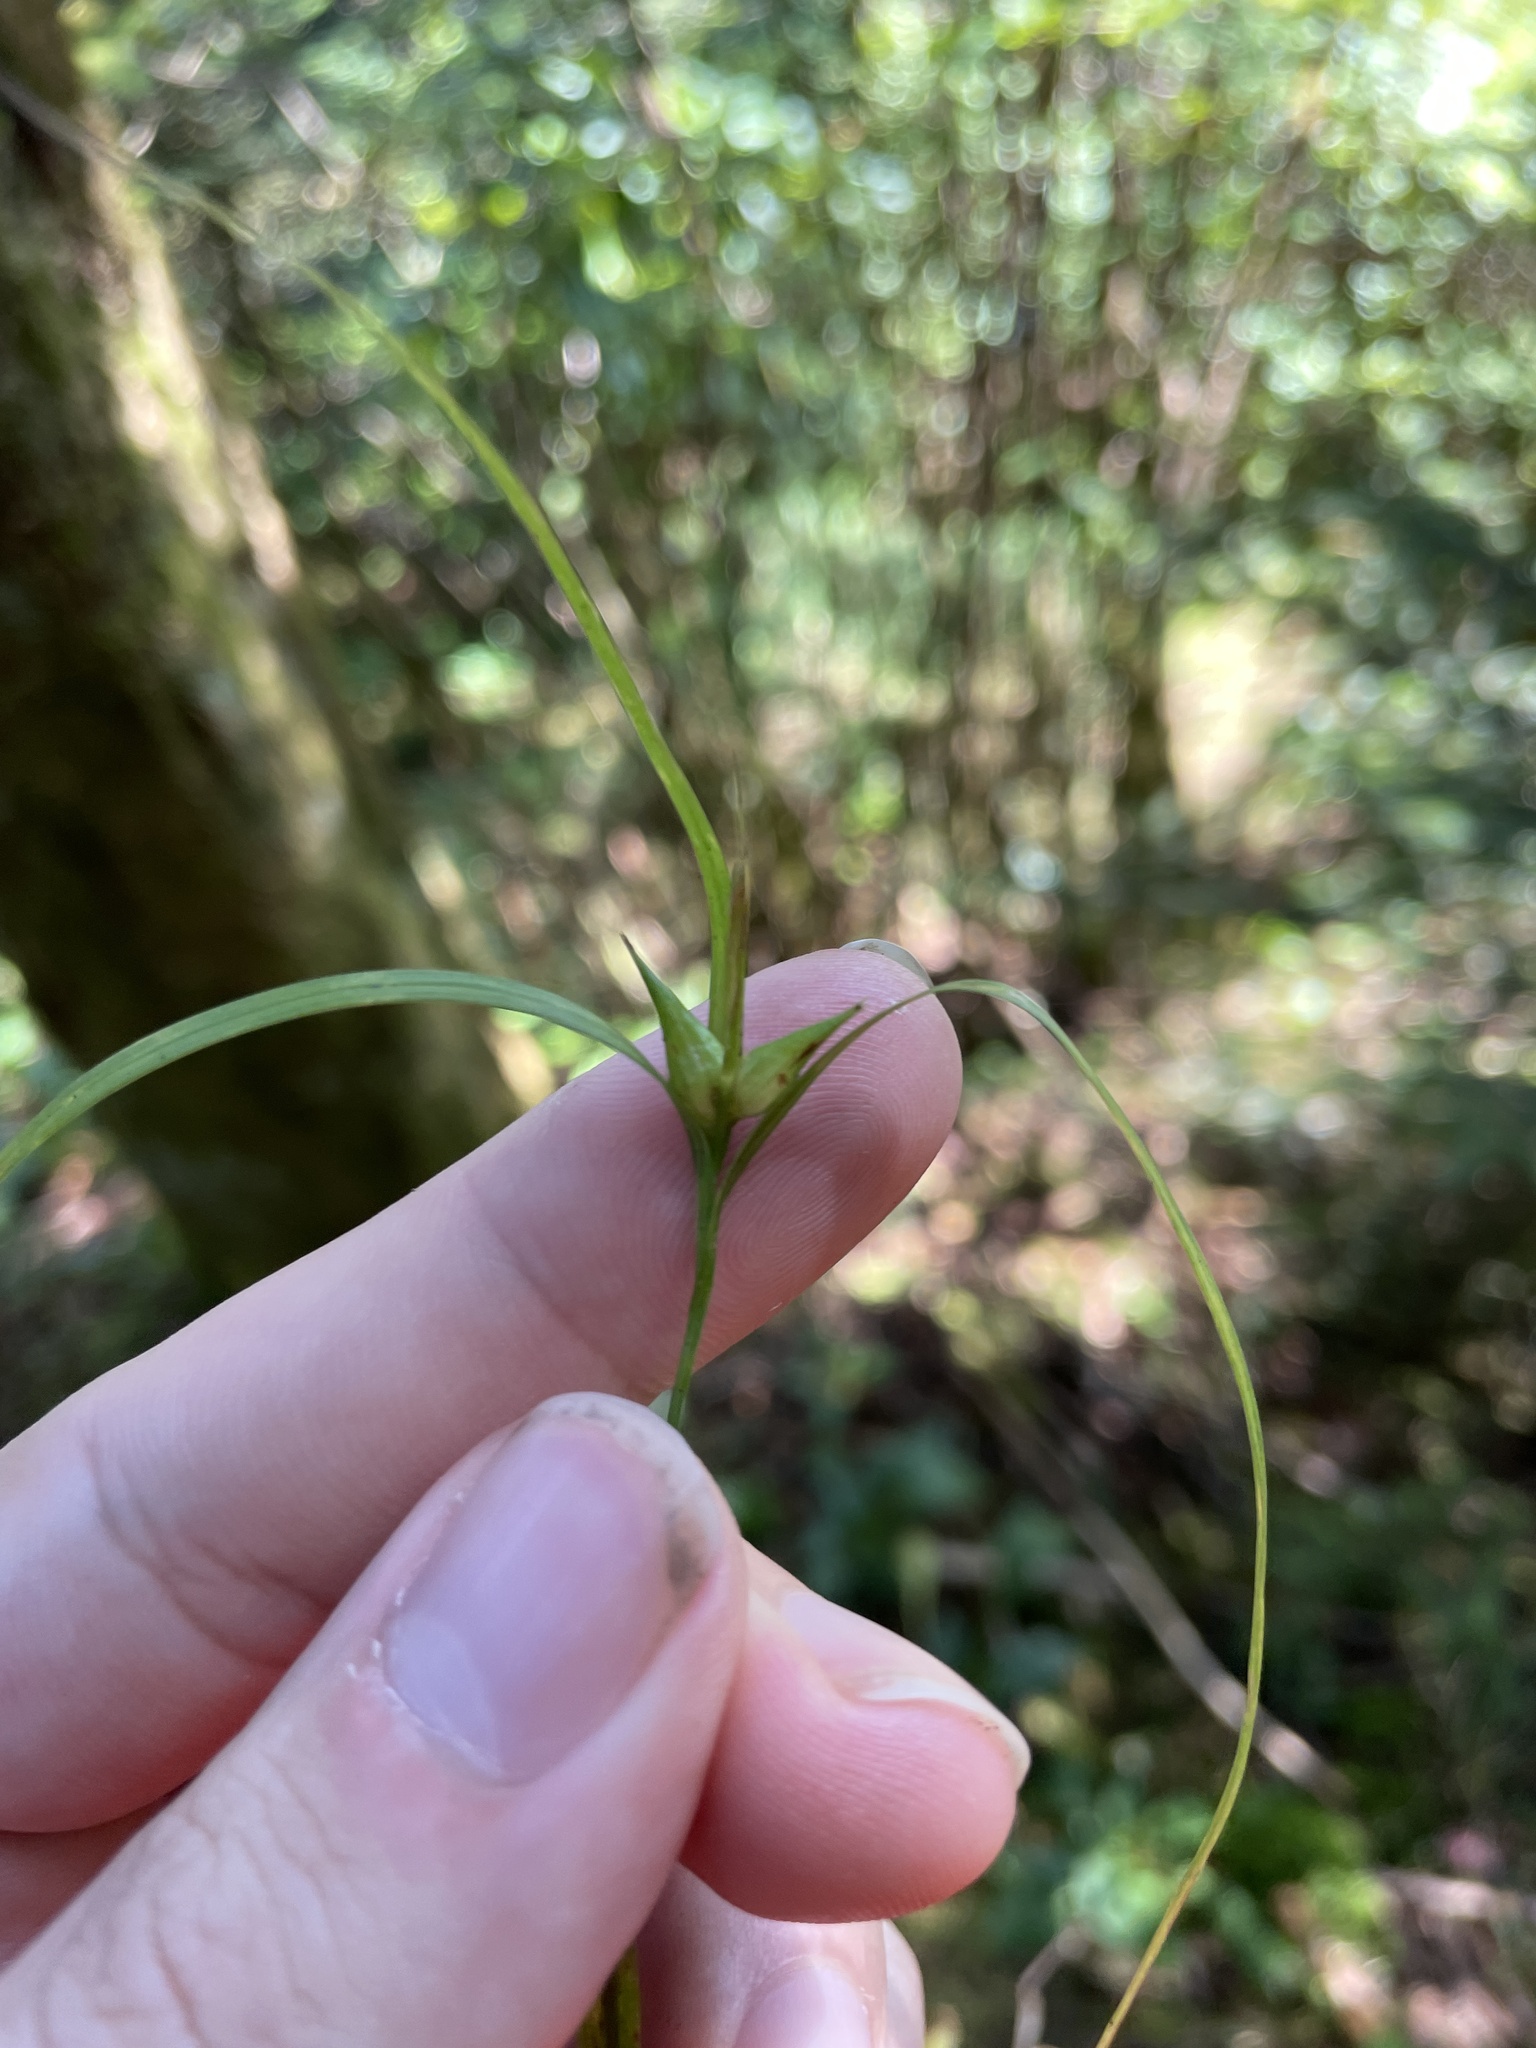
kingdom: Plantae
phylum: Tracheophyta
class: Liliopsida
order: Poales
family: Cyperaceae
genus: Carex
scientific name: Carex intumescens
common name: Greater bladder sedge
